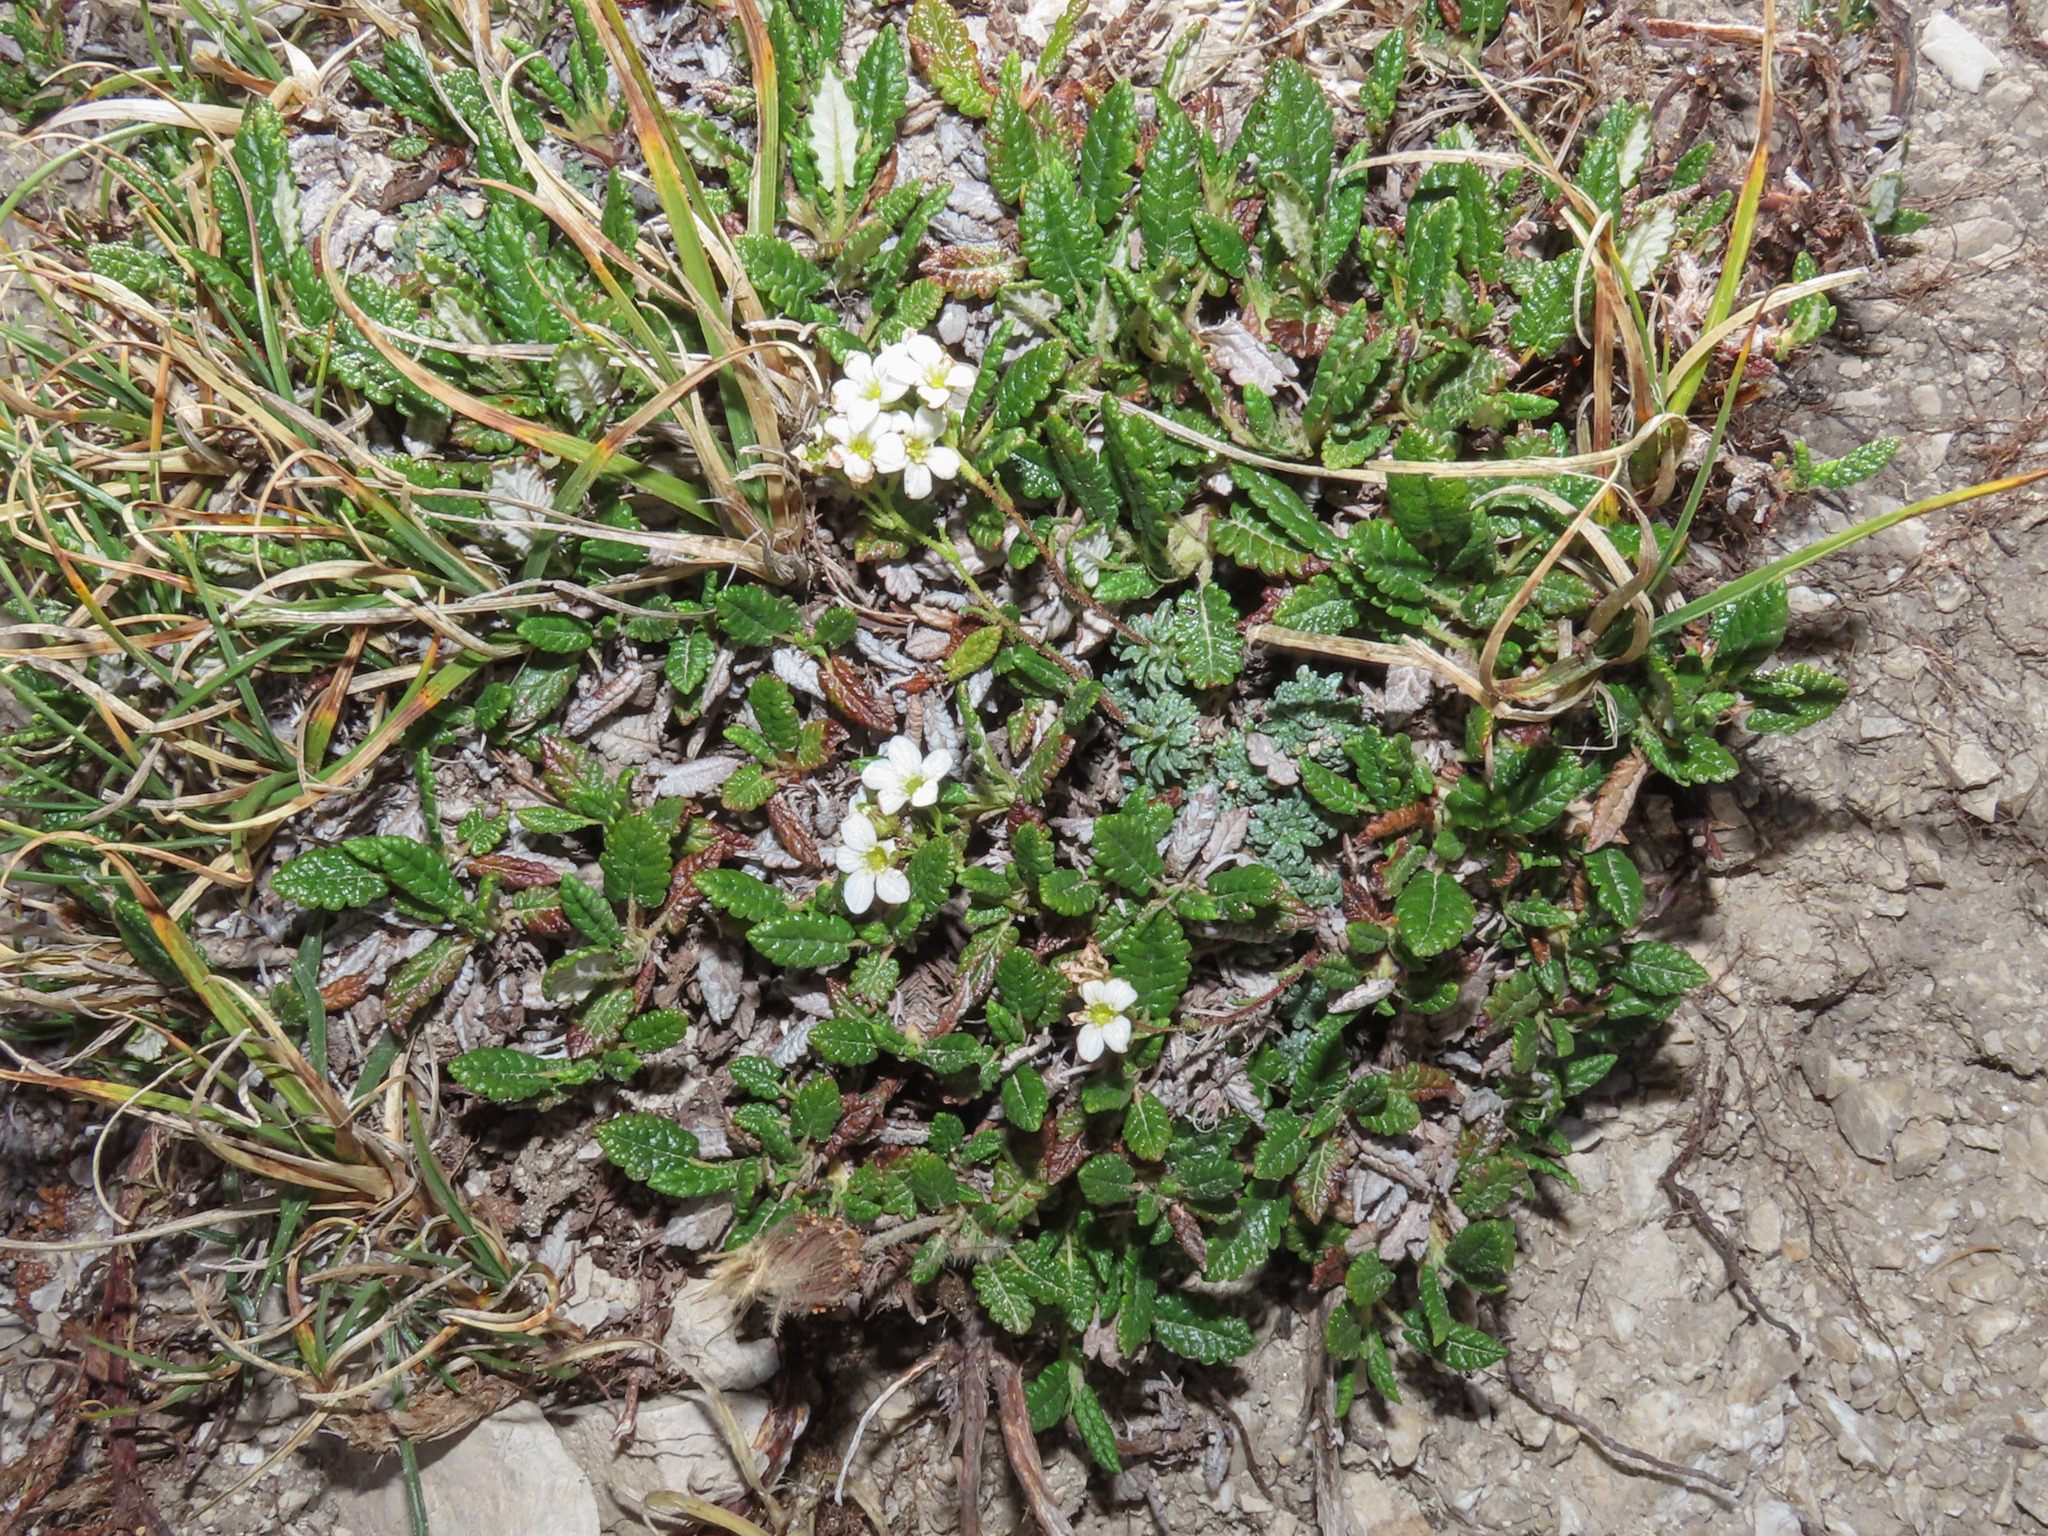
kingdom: Plantae
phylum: Tracheophyta
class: Magnoliopsida
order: Saxifragales
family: Saxifragaceae
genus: Saxifraga
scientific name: Saxifraga caesia
